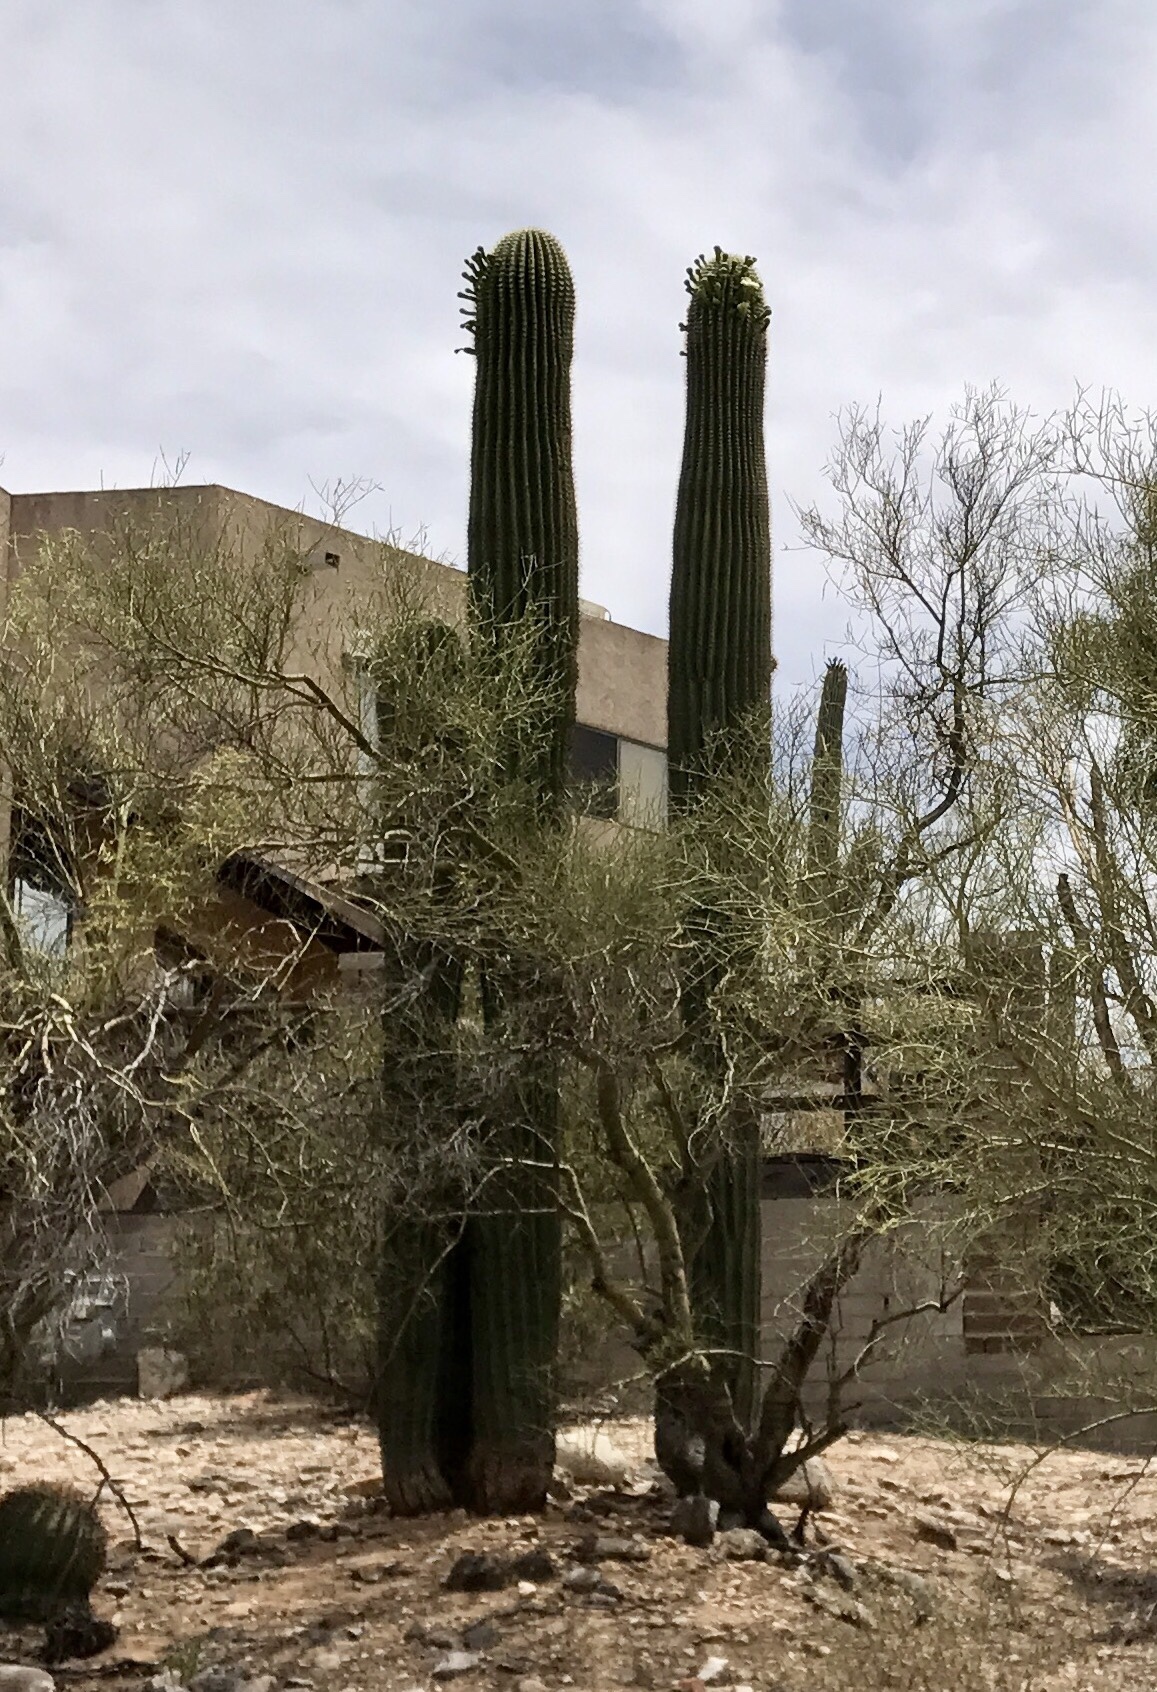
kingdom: Plantae
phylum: Tracheophyta
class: Magnoliopsida
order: Caryophyllales
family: Cactaceae
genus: Carnegiea
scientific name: Carnegiea gigantea
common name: Saguaro
